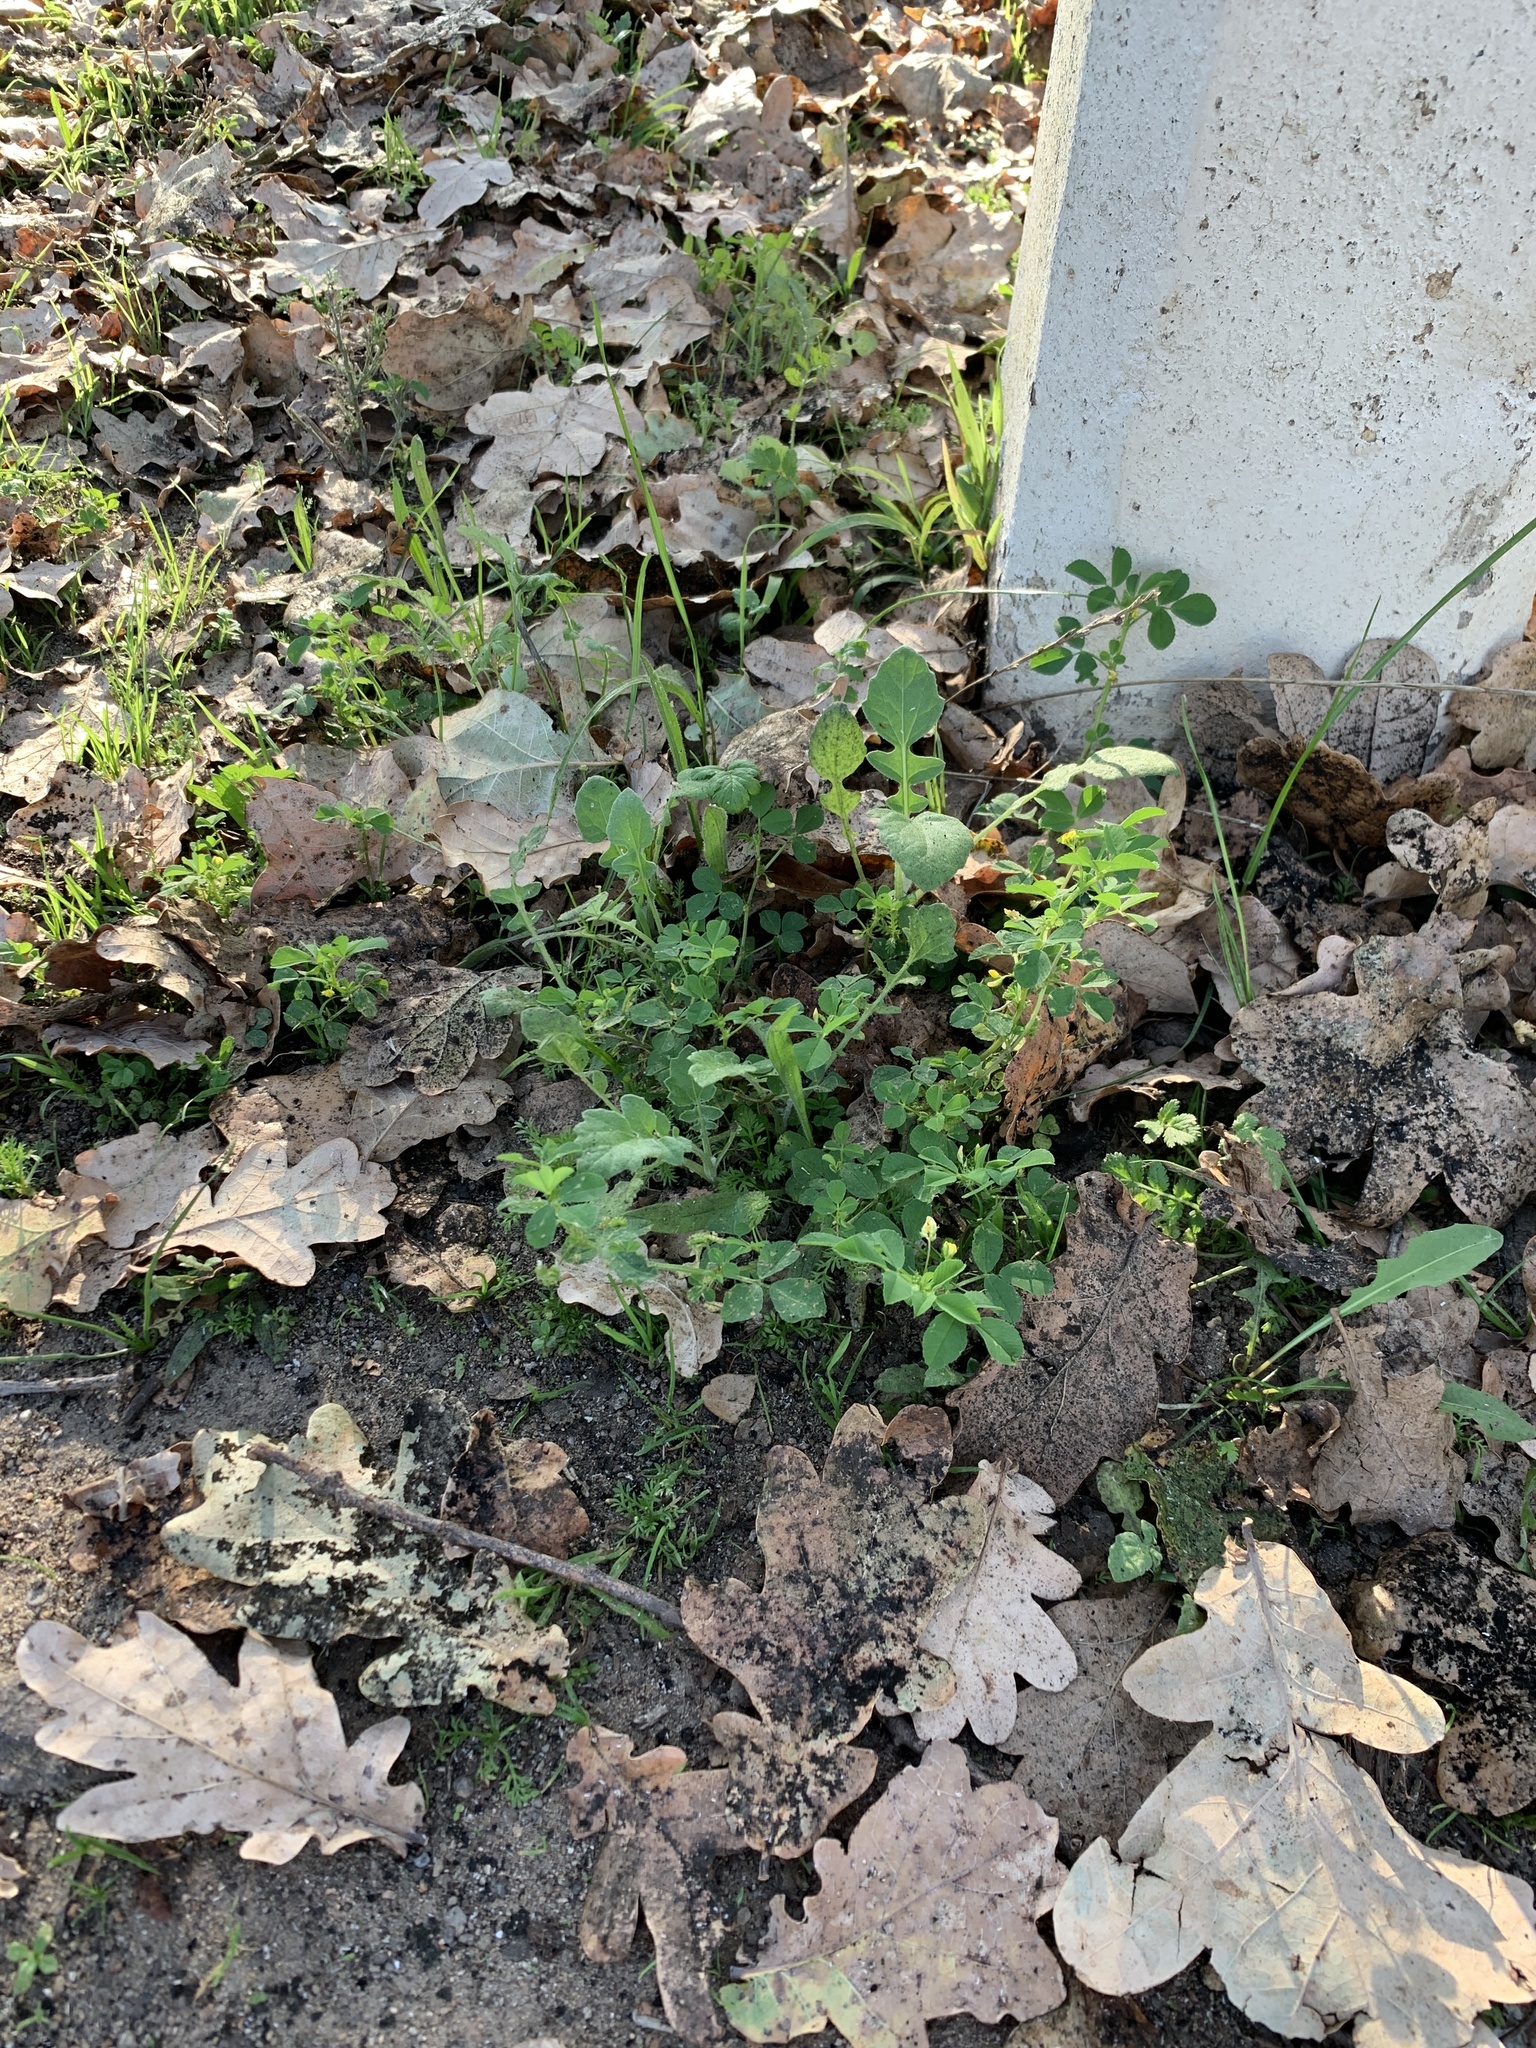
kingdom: Plantae
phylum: Tracheophyta
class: Magnoliopsida
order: Fabales
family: Fabaceae
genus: Medicago
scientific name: Medicago polymorpha
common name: Burclover
